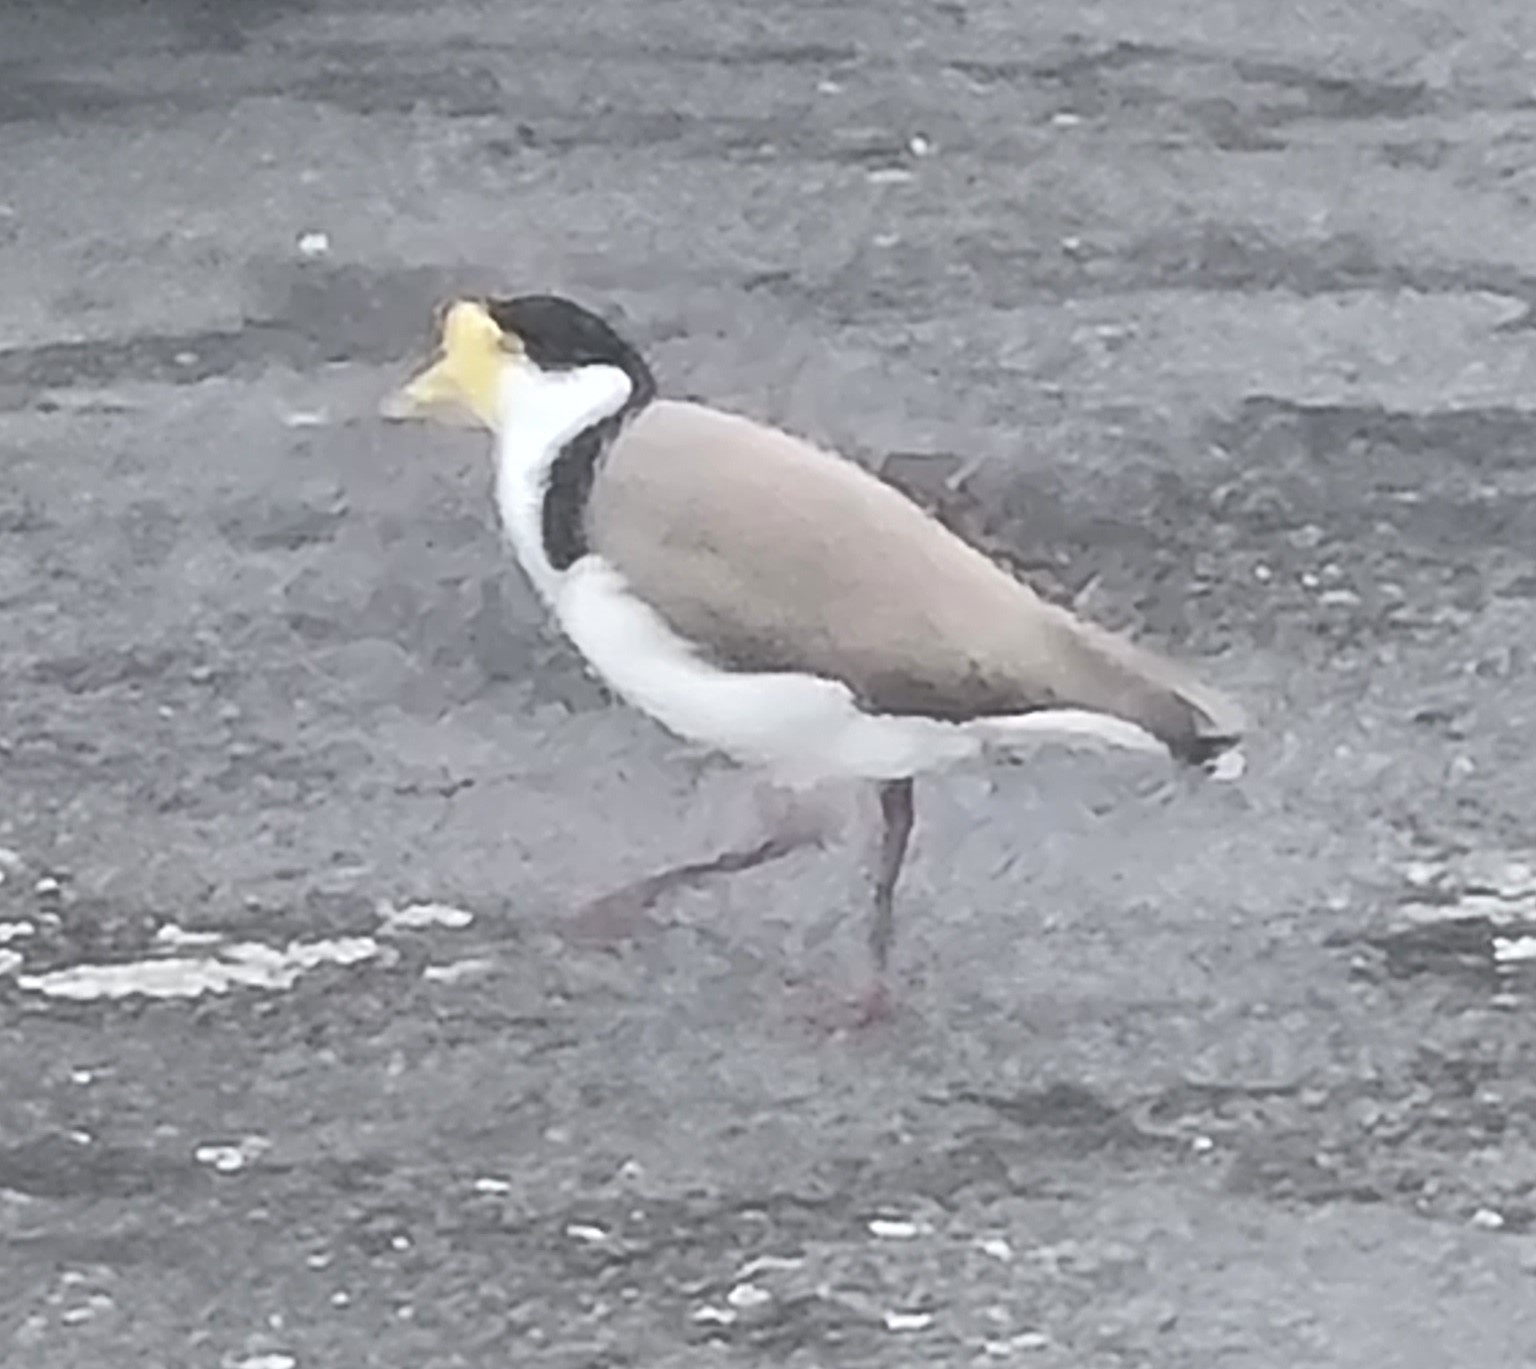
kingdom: Animalia
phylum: Chordata
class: Aves
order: Charadriiformes
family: Charadriidae
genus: Vanellus
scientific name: Vanellus miles
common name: Masked lapwing
